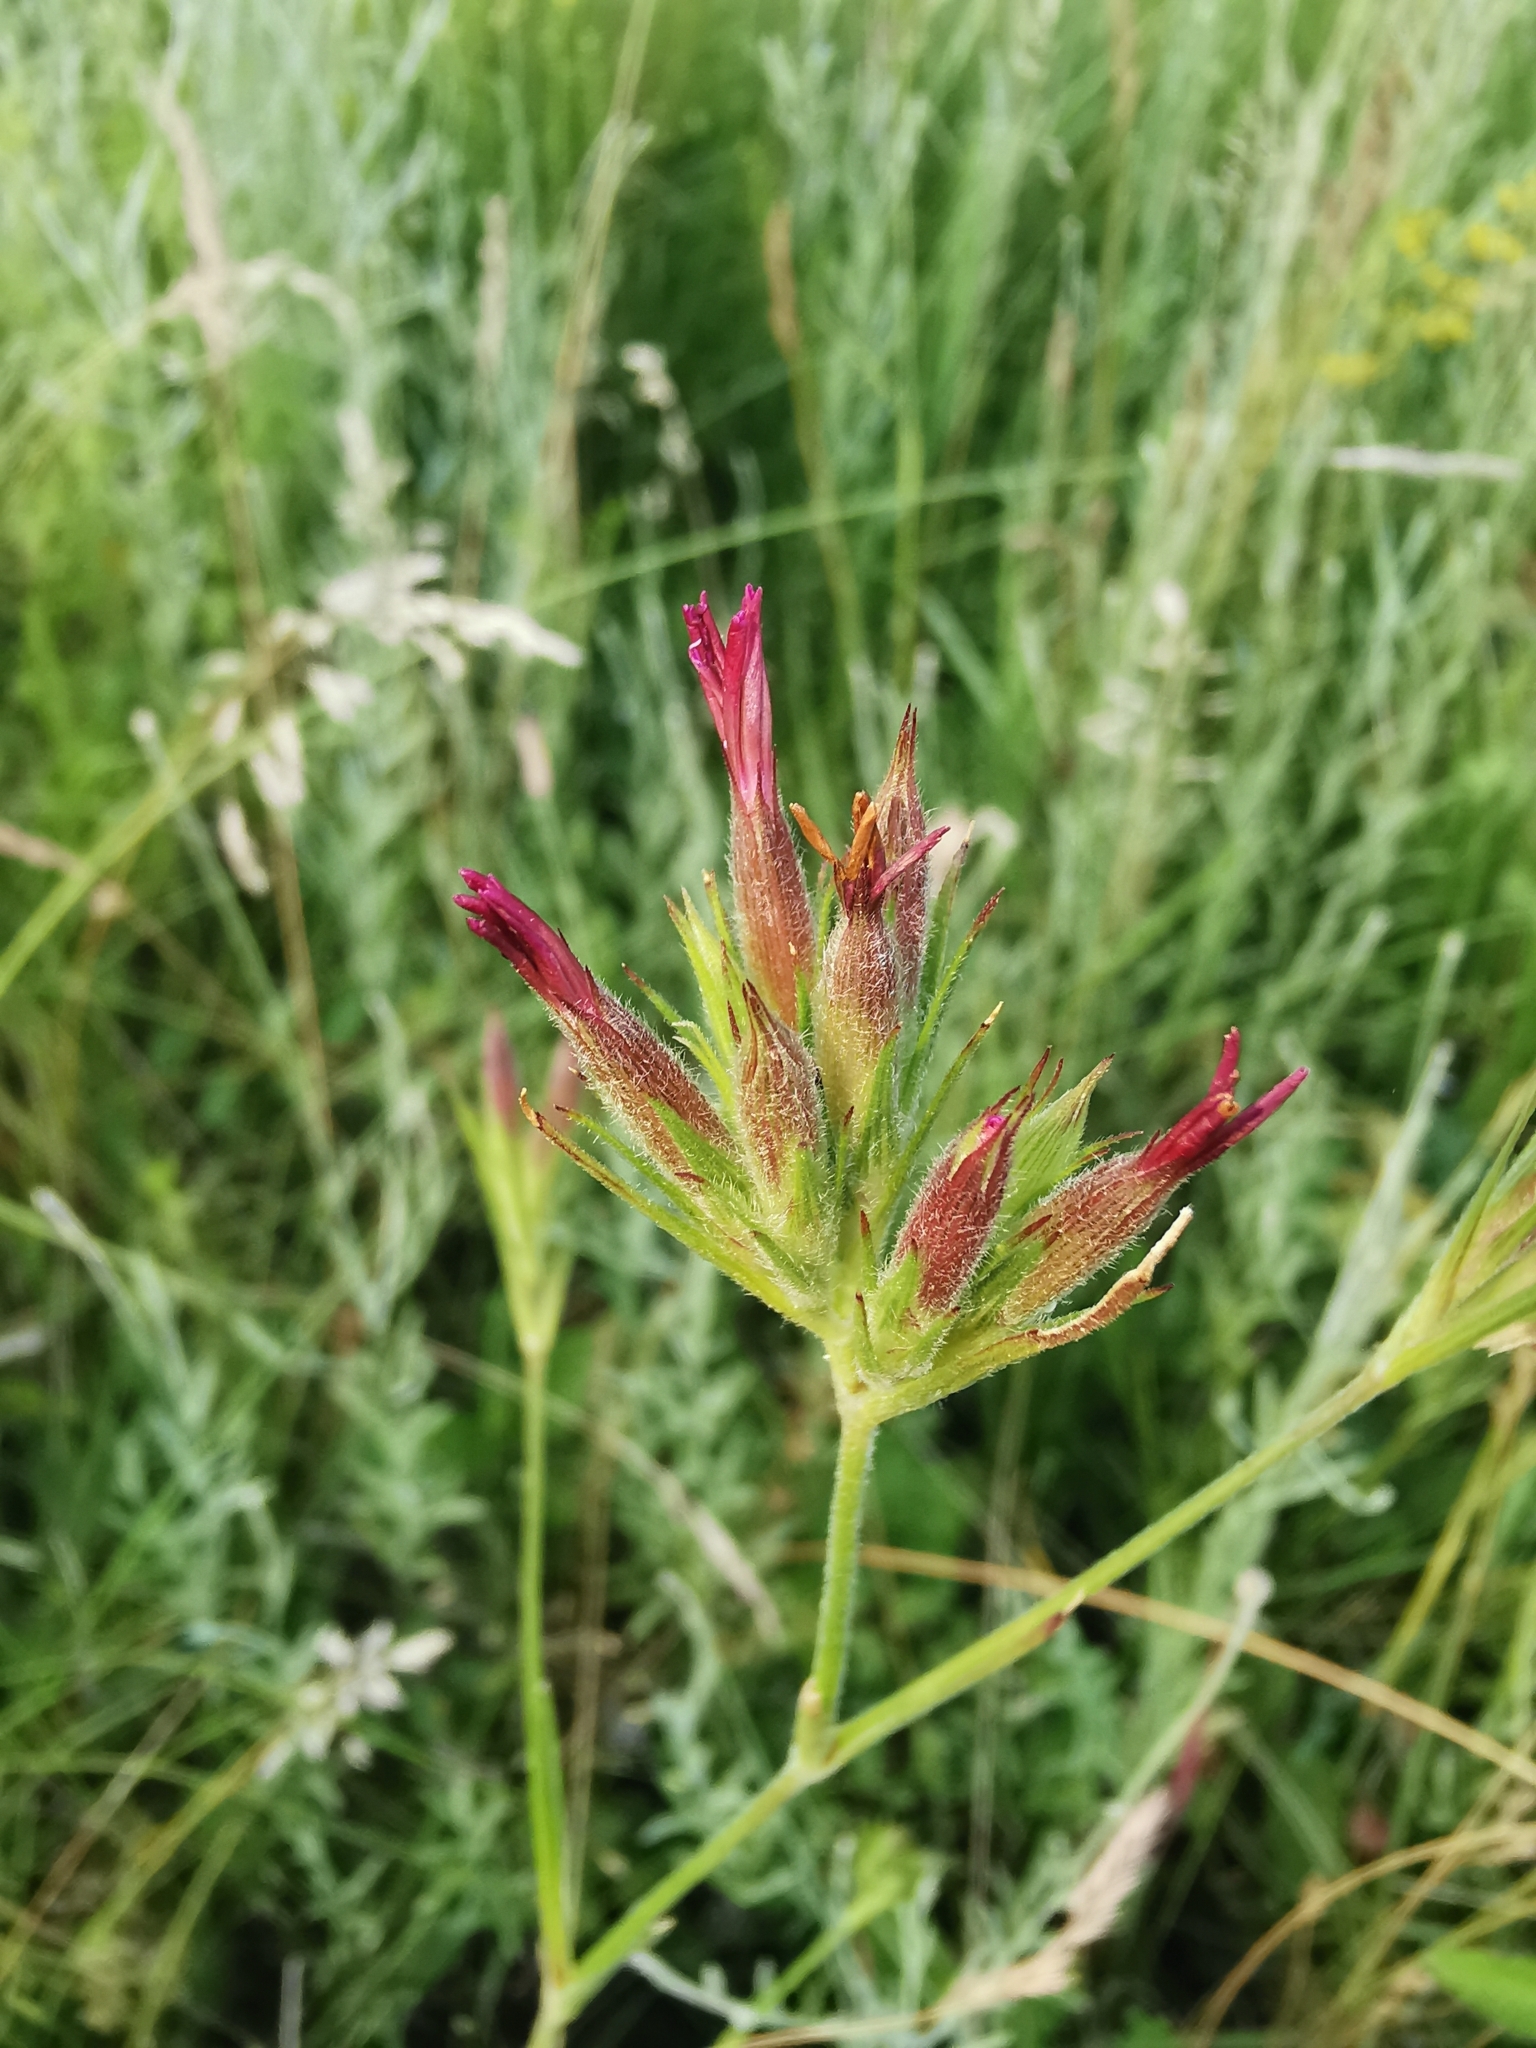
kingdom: Plantae
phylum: Tracheophyta
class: Magnoliopsida
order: Caryophyllales
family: Caryophyllaceae
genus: Dianthus
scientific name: Dianthus armeria
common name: Deptford pink
